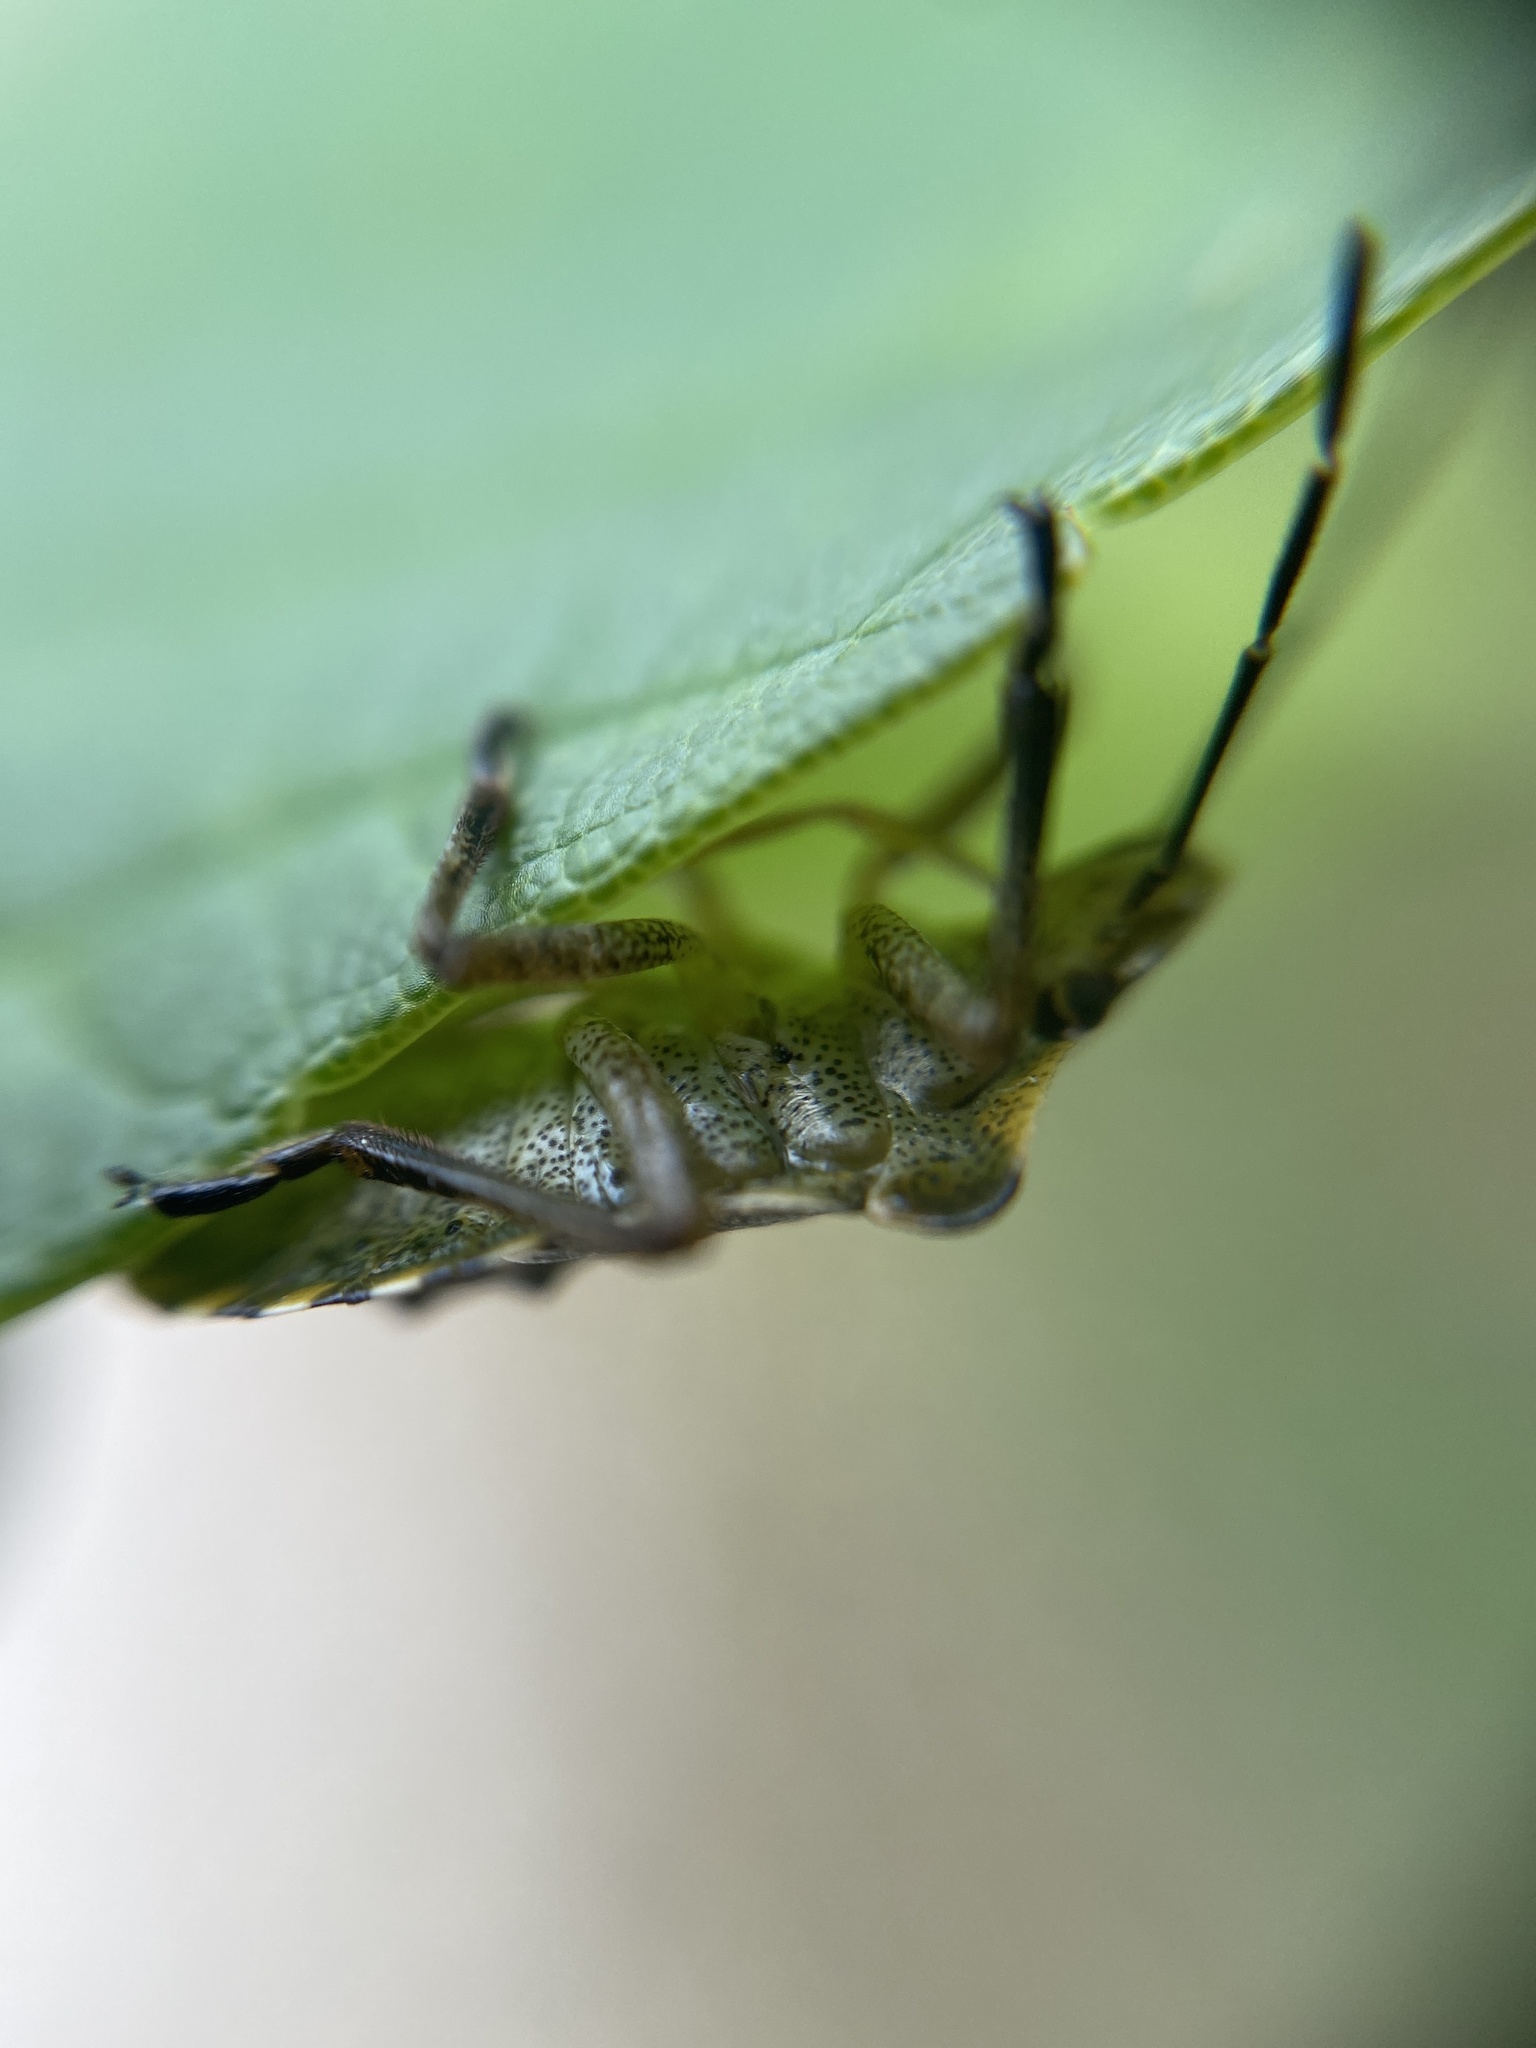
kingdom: Animalia
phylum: Arthropoda
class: Insecta
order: Hemiptera
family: Pentatomidae
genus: Pentatoma
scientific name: Pentatoma rufipes
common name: Forest bug
